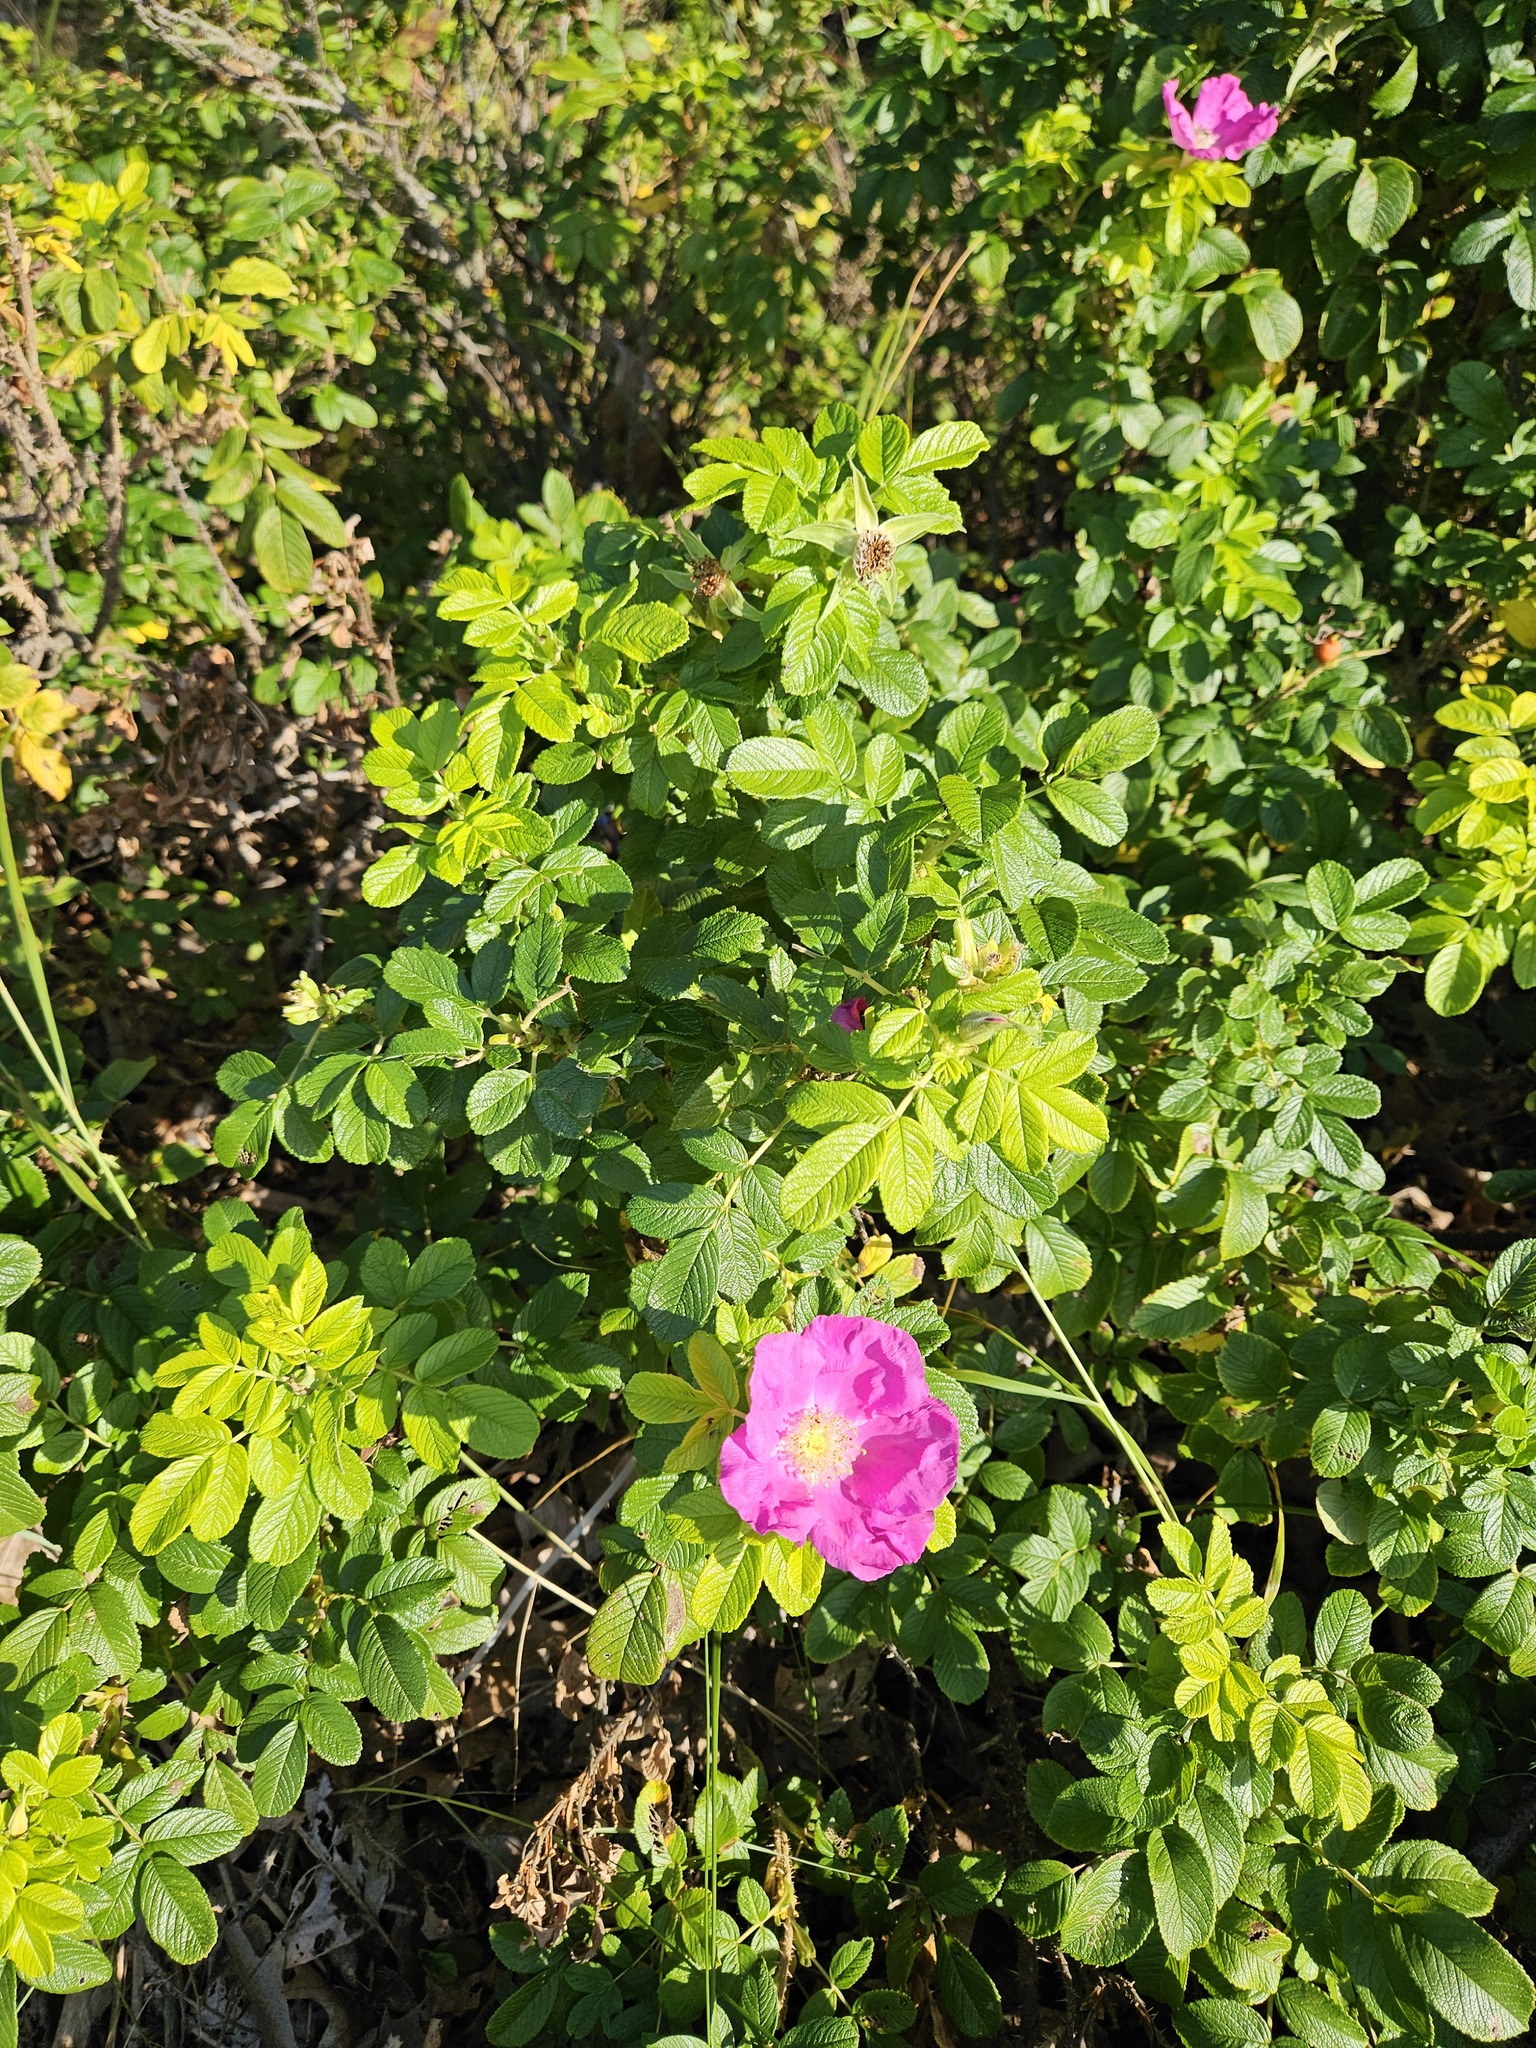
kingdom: Plantae
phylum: Tracheophyta
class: Magnoliopsida
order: Rosales
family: Rosaceae
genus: Rosa
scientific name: Rosa rugosa
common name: Japanese rose
